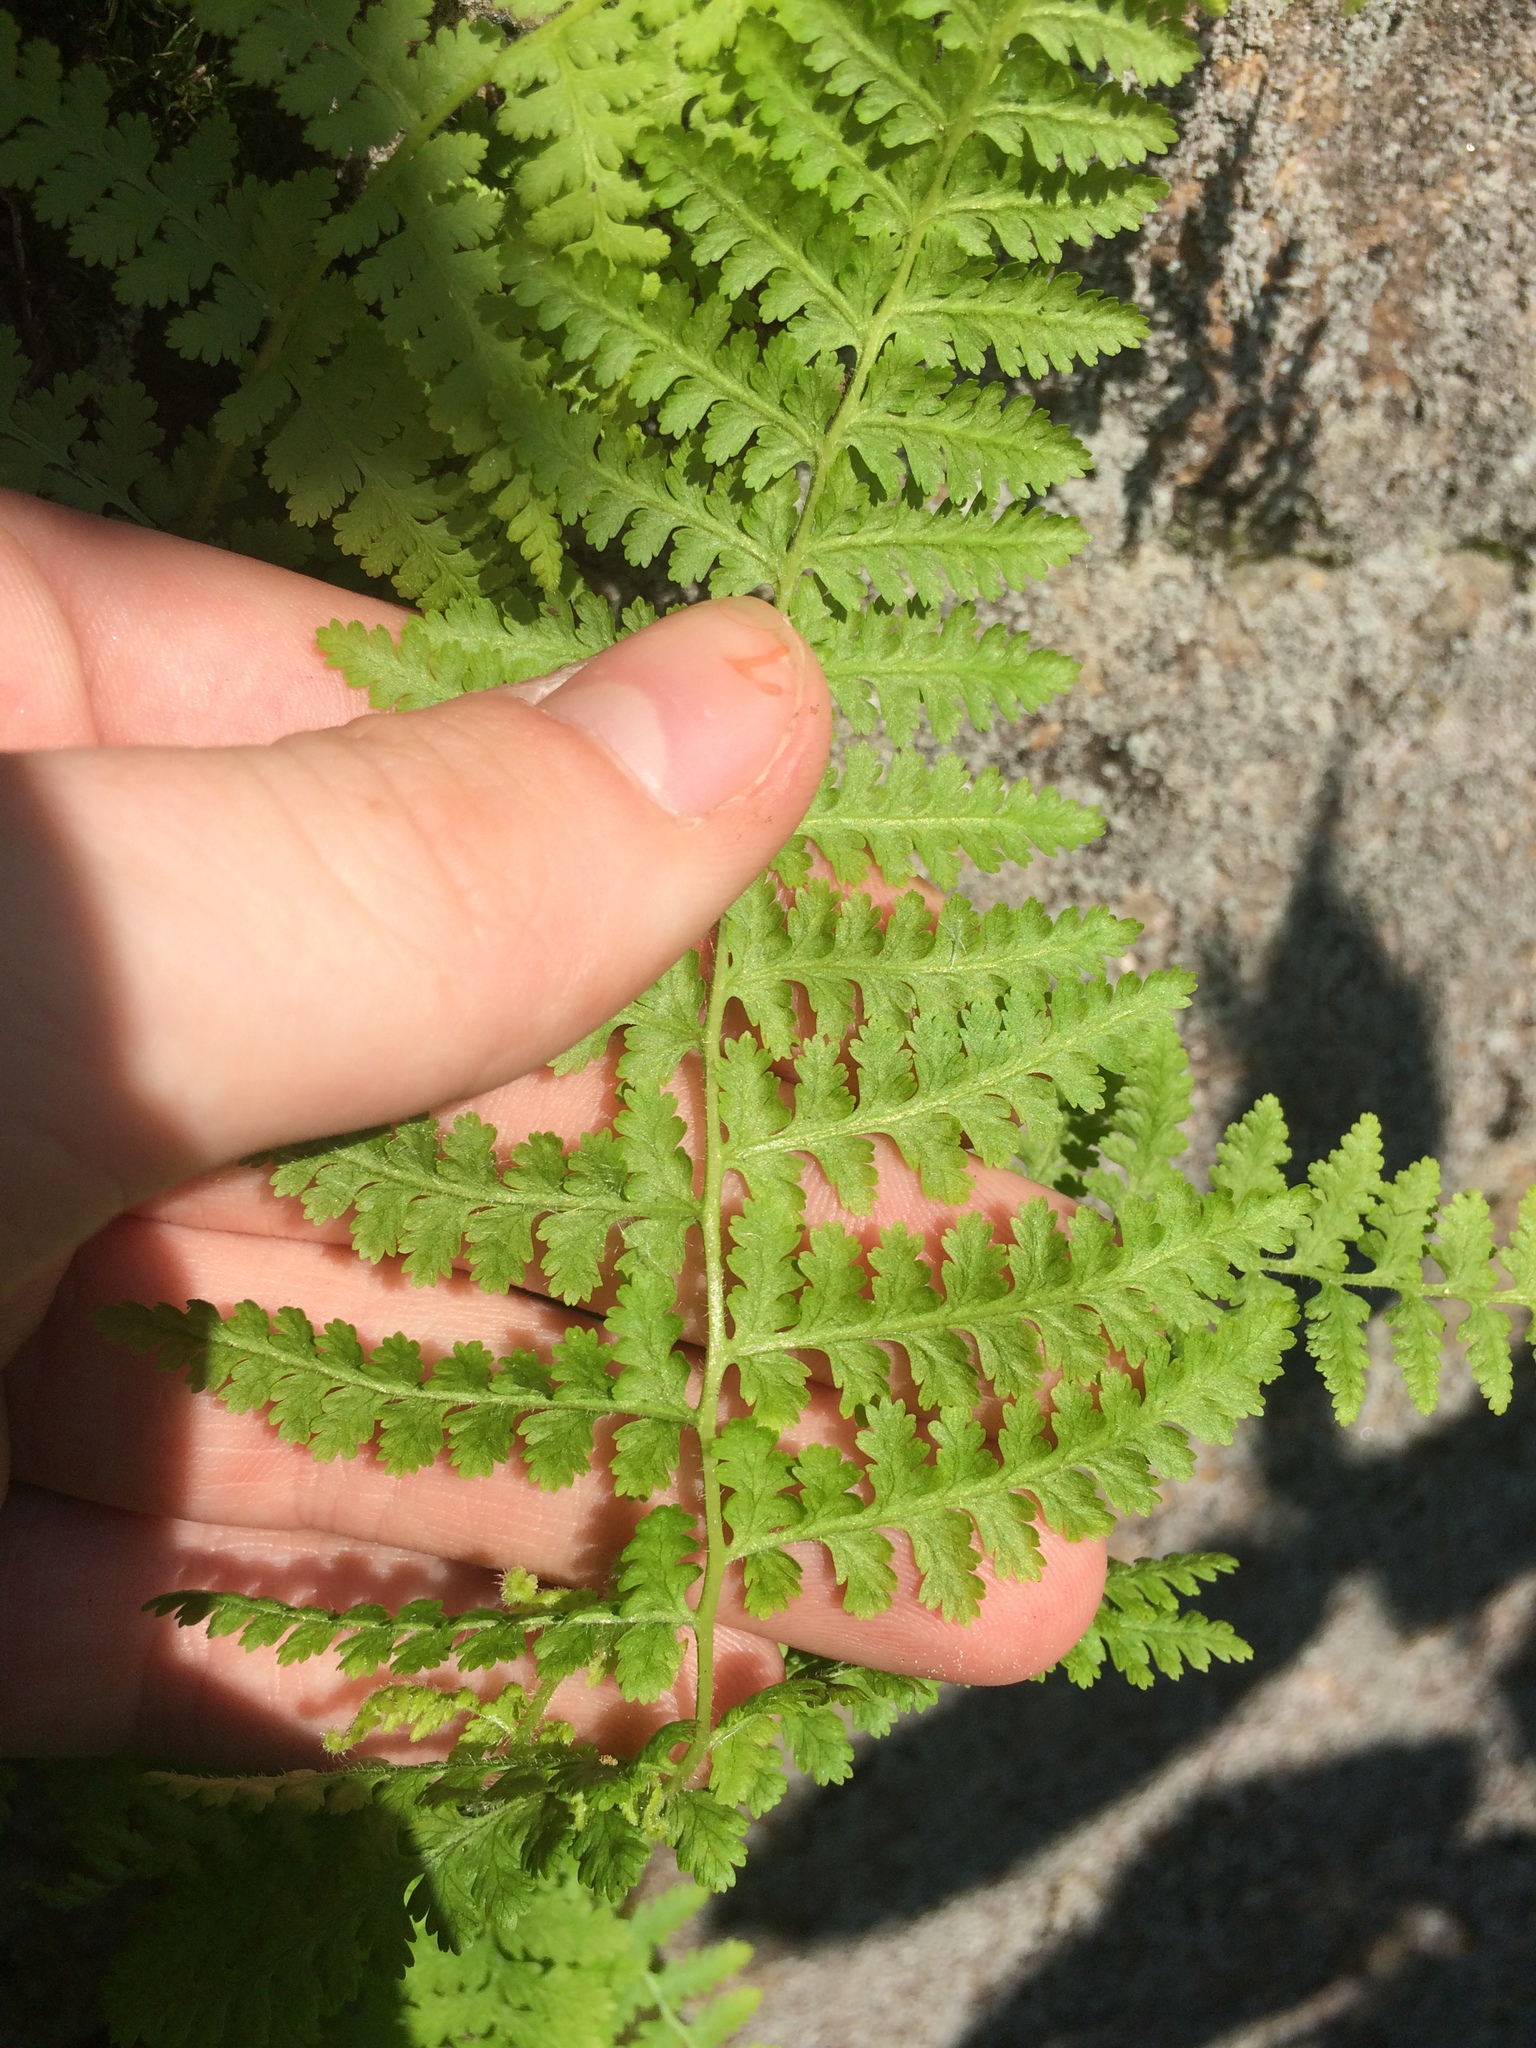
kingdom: Plantae
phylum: Tracheophyta
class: Polypodiopsida
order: Polypodiales
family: Dennstaedtiaceae
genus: Sitobolium
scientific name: Sitobolium punctilobum
